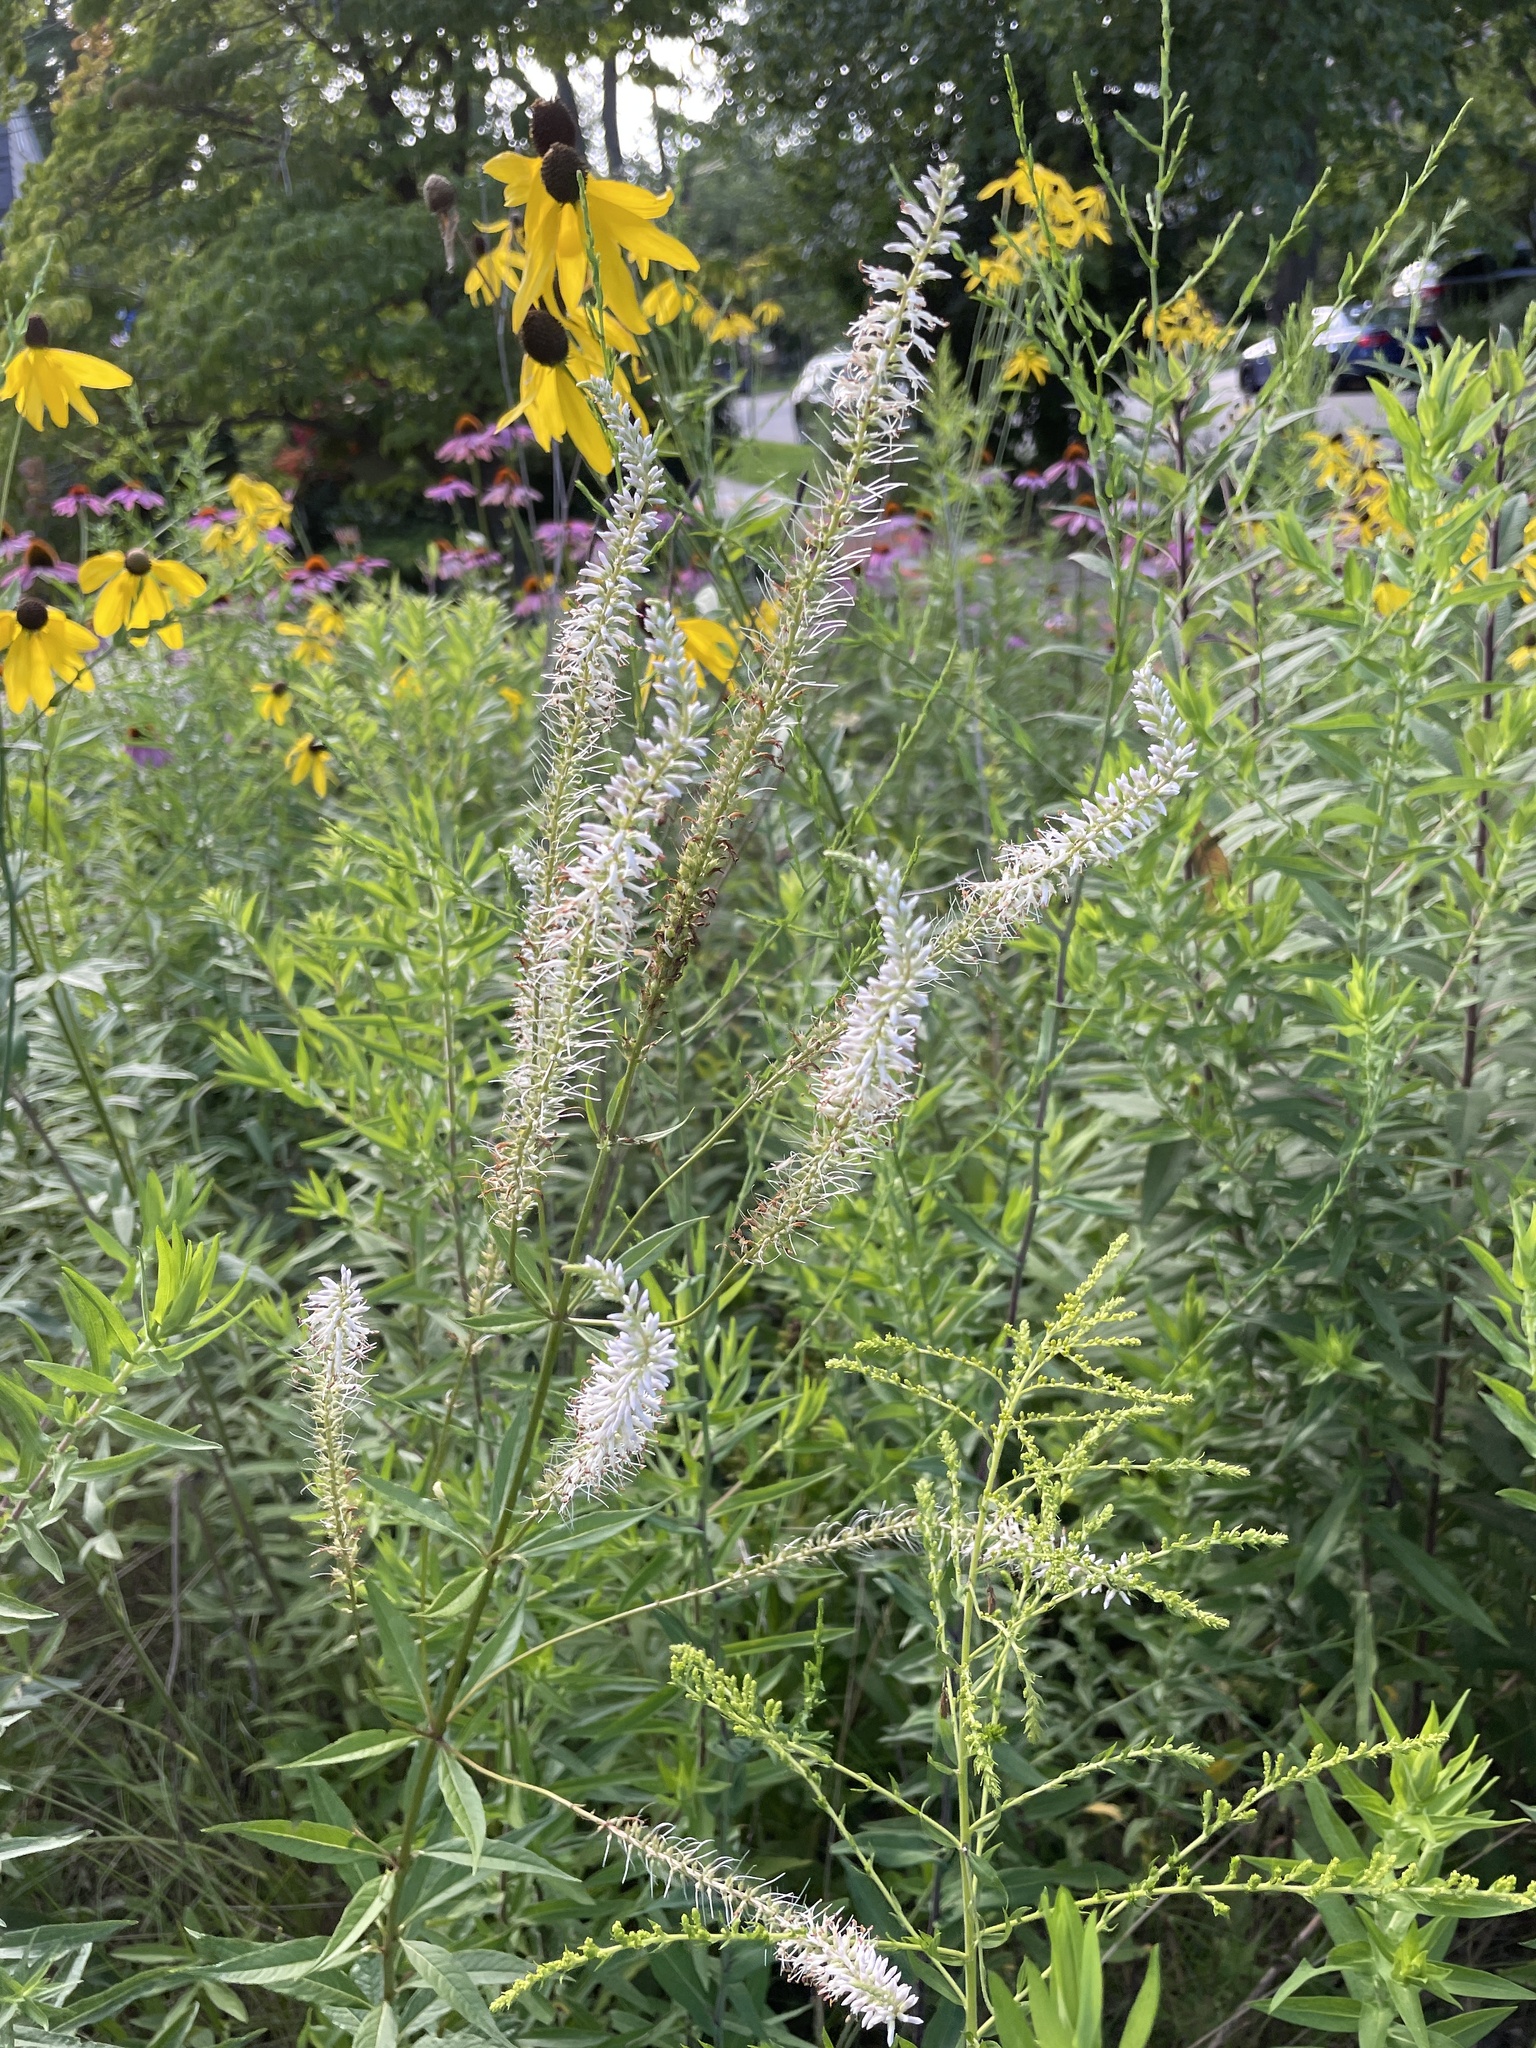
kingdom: Plantae
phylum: Tracheophyta
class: Magnoliopsida
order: Lamiales
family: Plantaginaceae
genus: Veronicastrum
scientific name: Veronicastrum virginicum
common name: Blackroot
